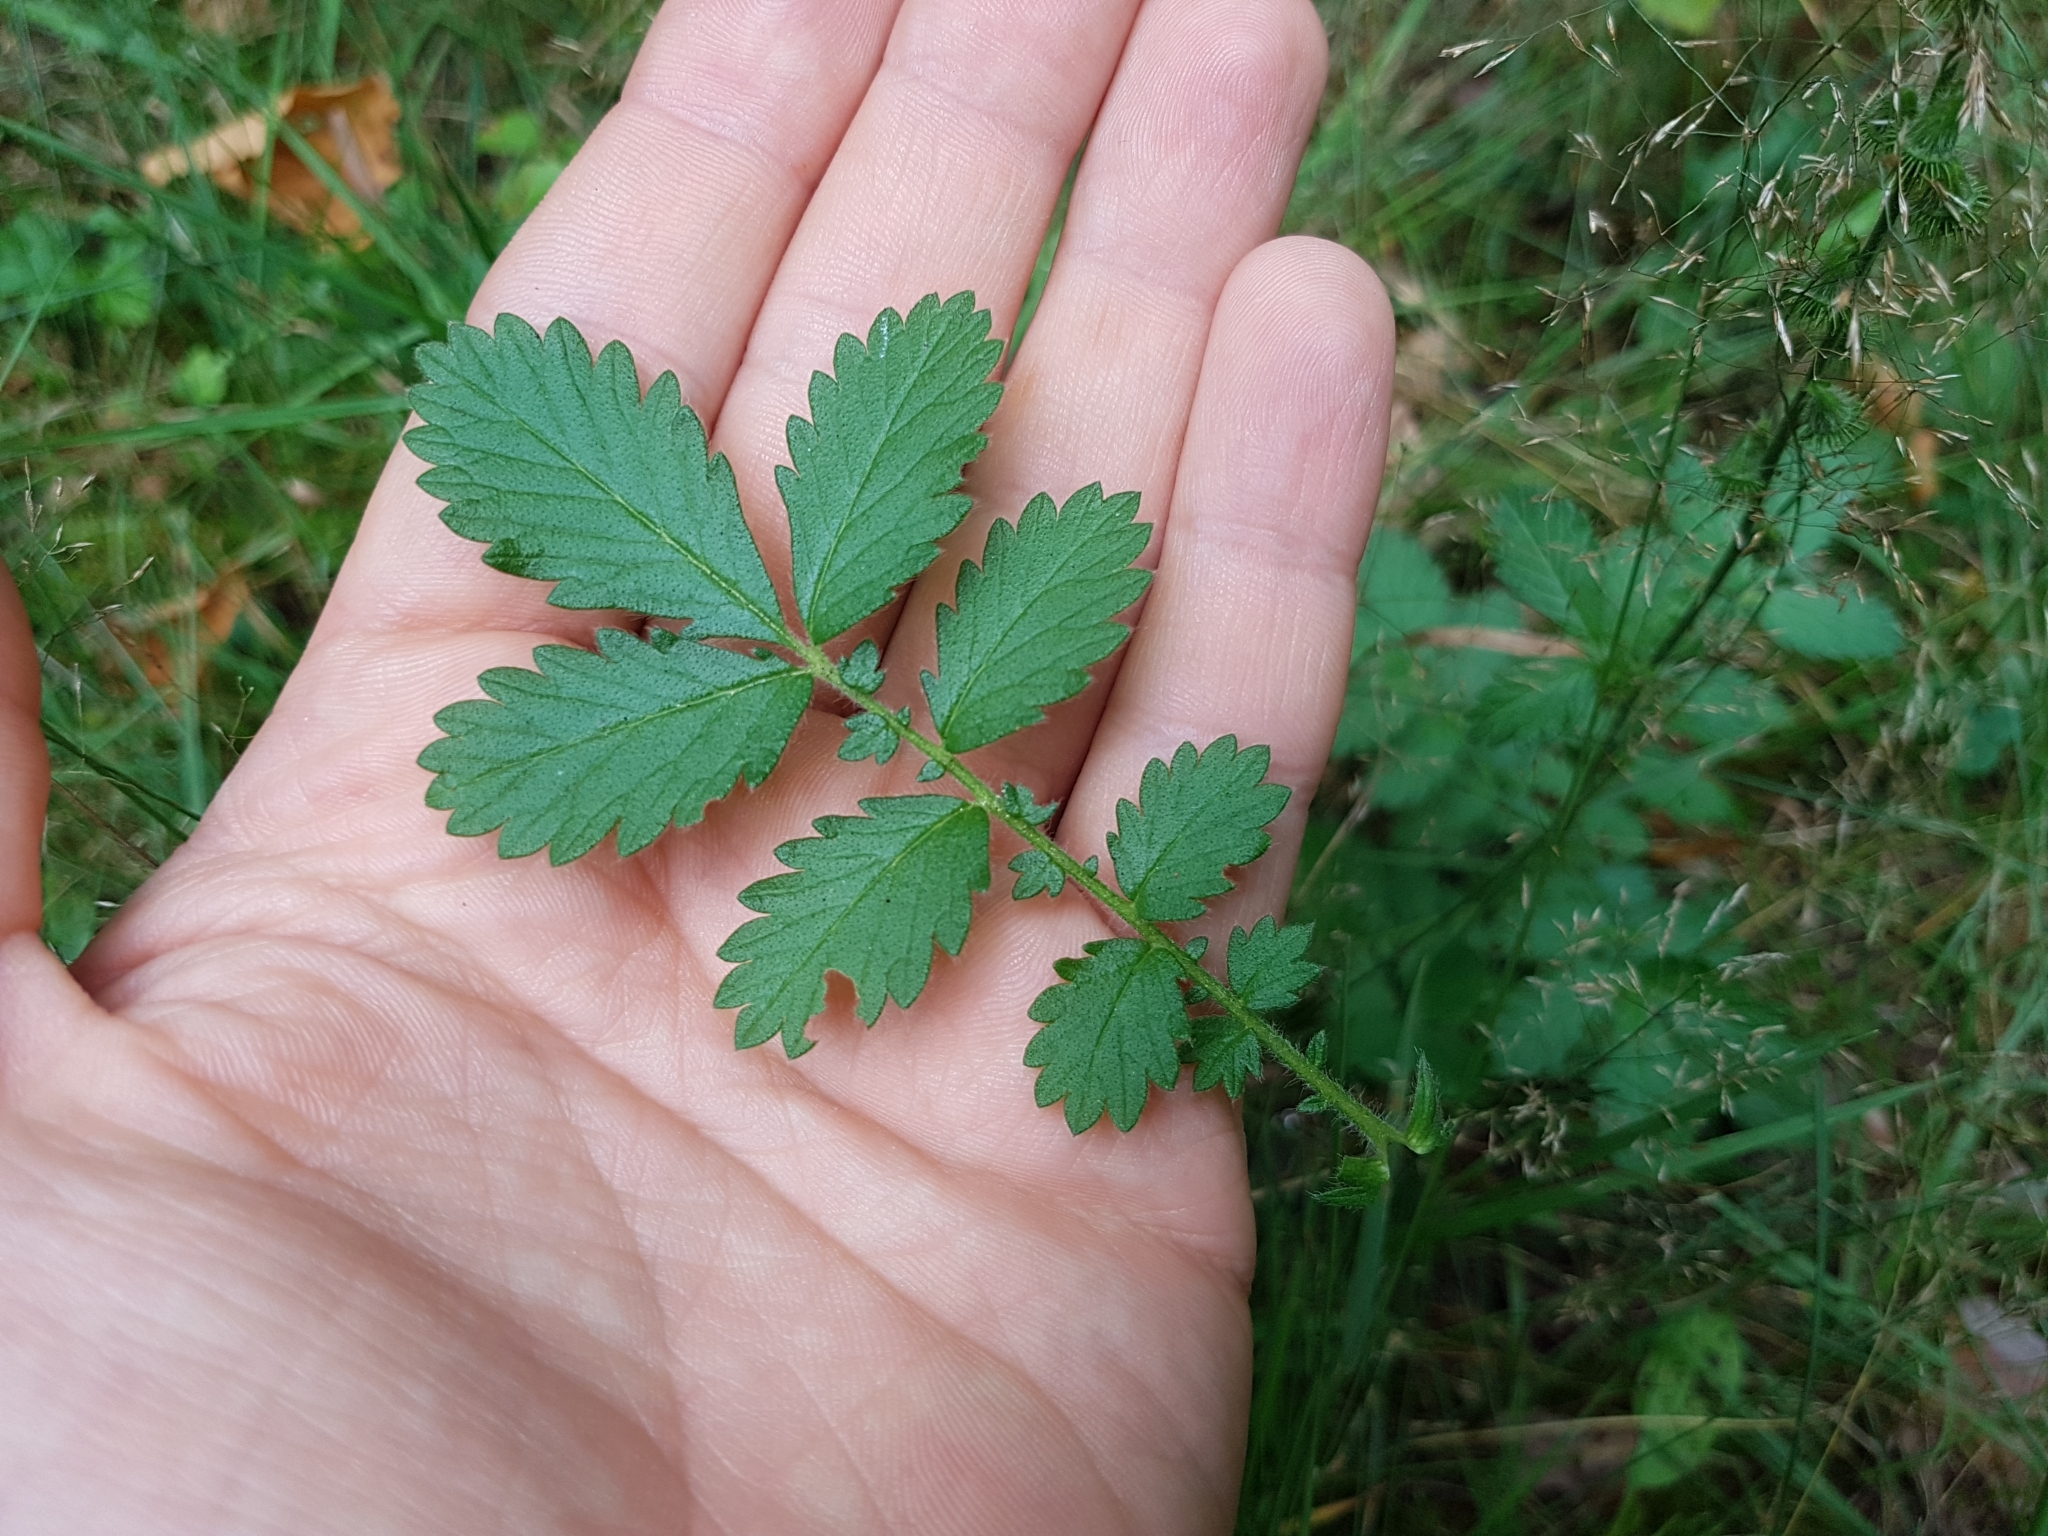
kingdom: Plantae
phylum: Tracheophyta
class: Magnoliopsida
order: Rosales
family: Rosaceae
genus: Agrimonia
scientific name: Agrimonia eupatoria
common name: Agrimony
